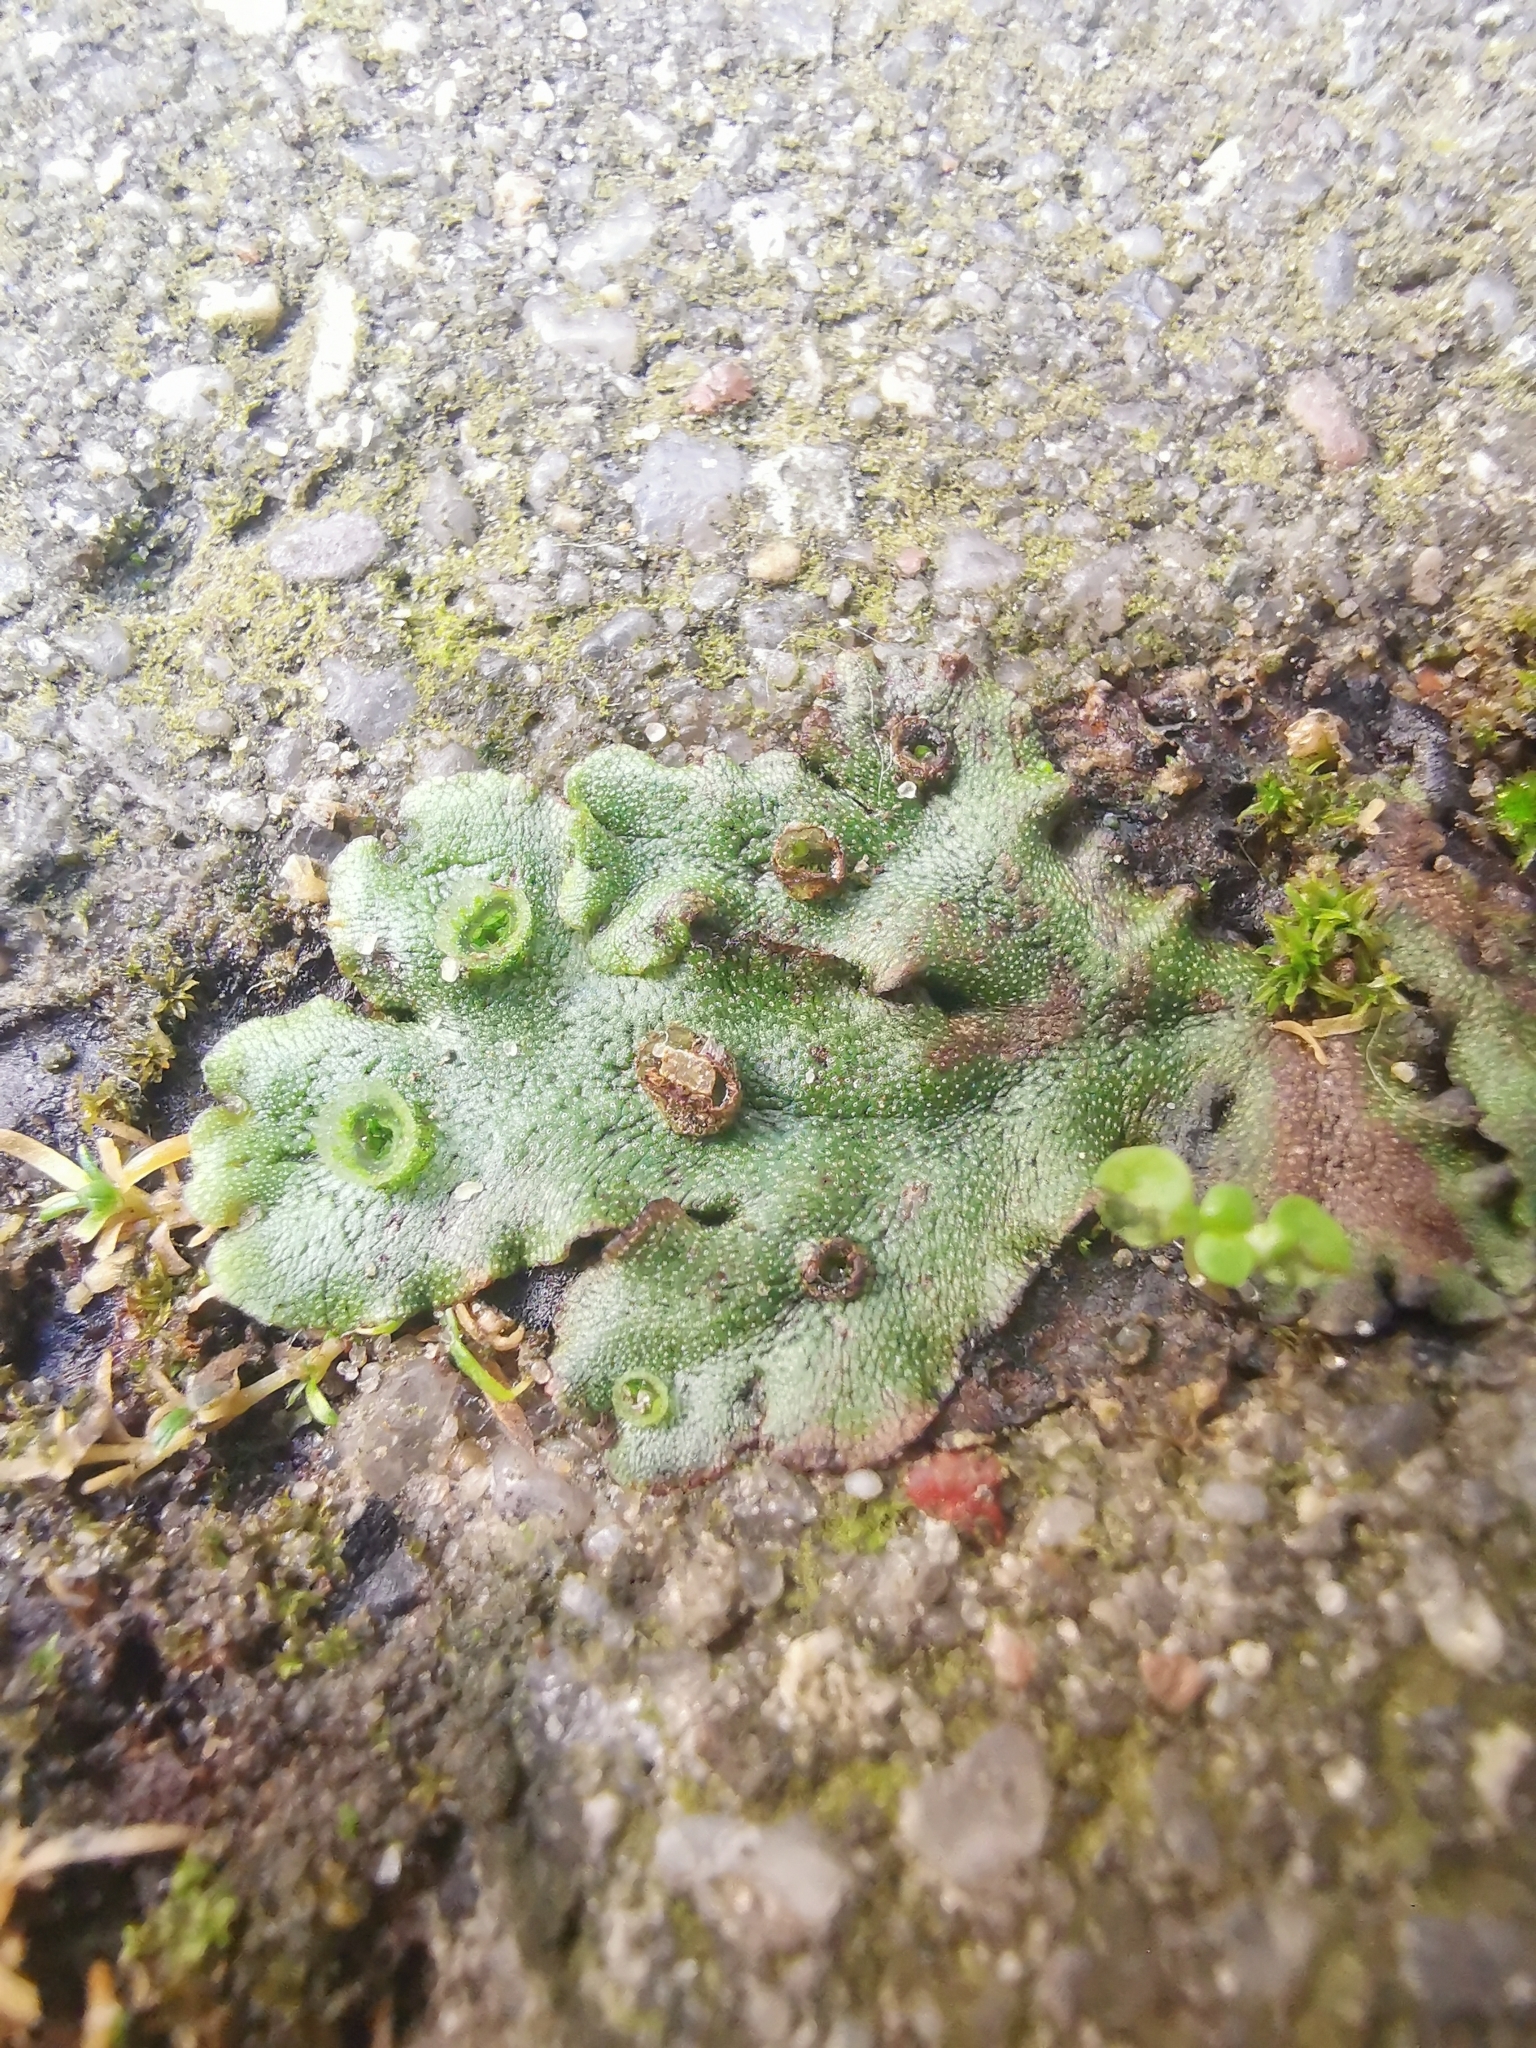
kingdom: Plantae
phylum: Marchantiophyta
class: Marchantiopsida
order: Marchantiales
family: Marchantiaceae
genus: Marchantia
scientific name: Marchantia polymorpha
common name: Common liverwort
